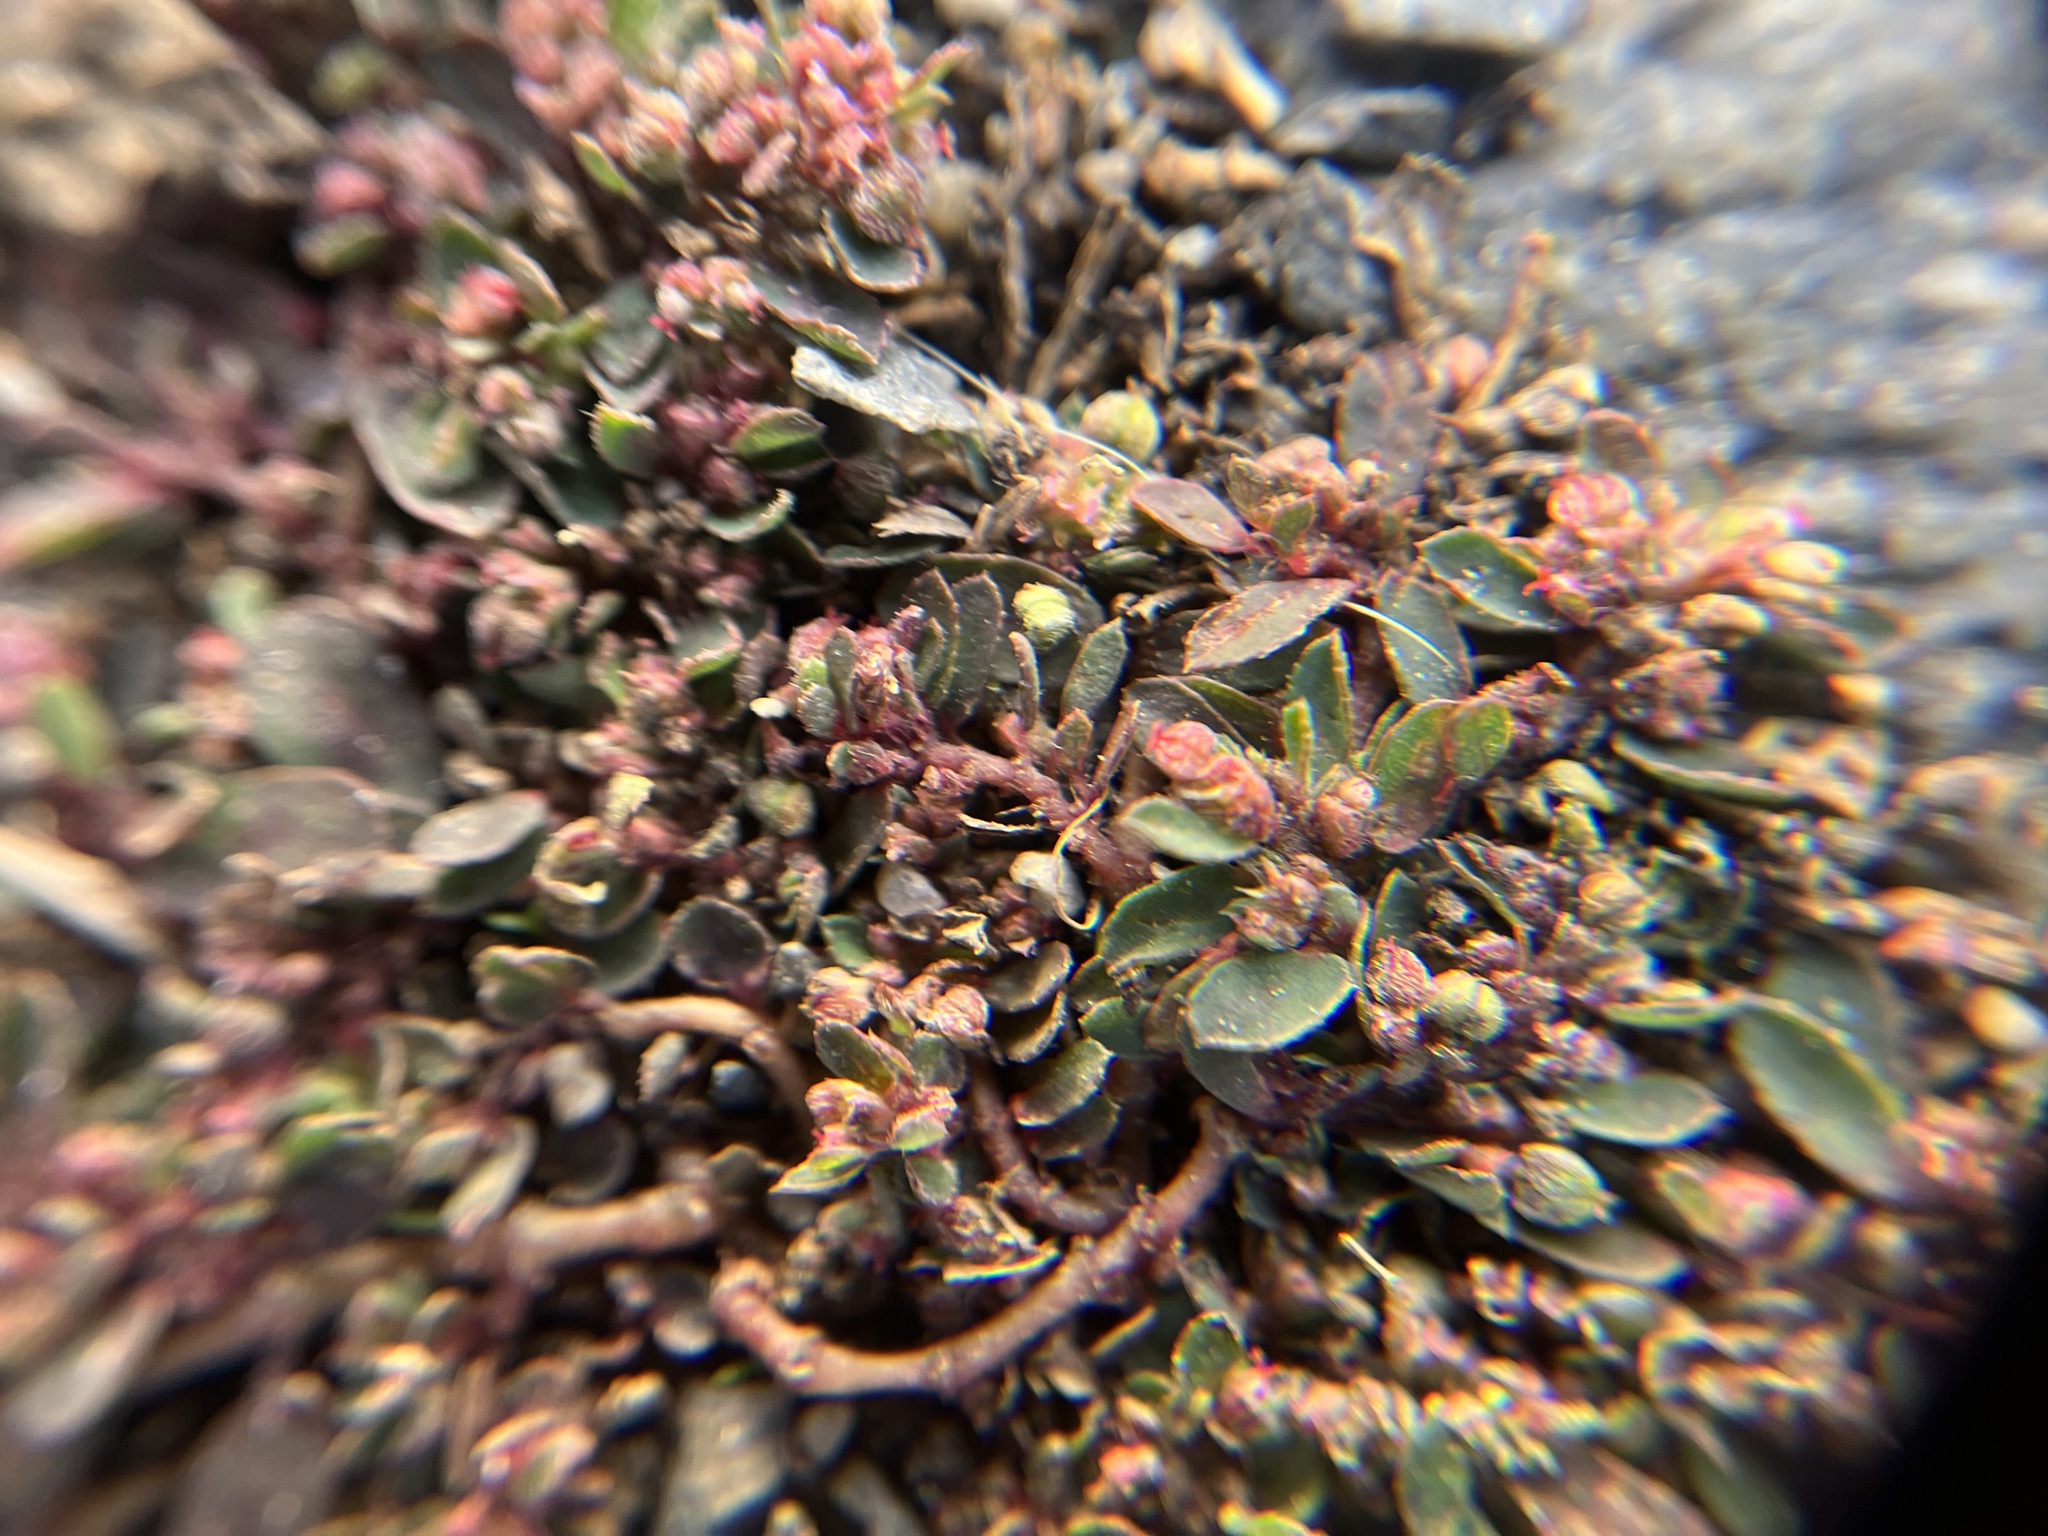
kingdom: Plantae
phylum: Tracheophyta
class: Magnoliopsida
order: Malpighiales
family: Euphorbiaceae
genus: Euphorbia
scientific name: Euphorbia maculata
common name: Spotted spurge
